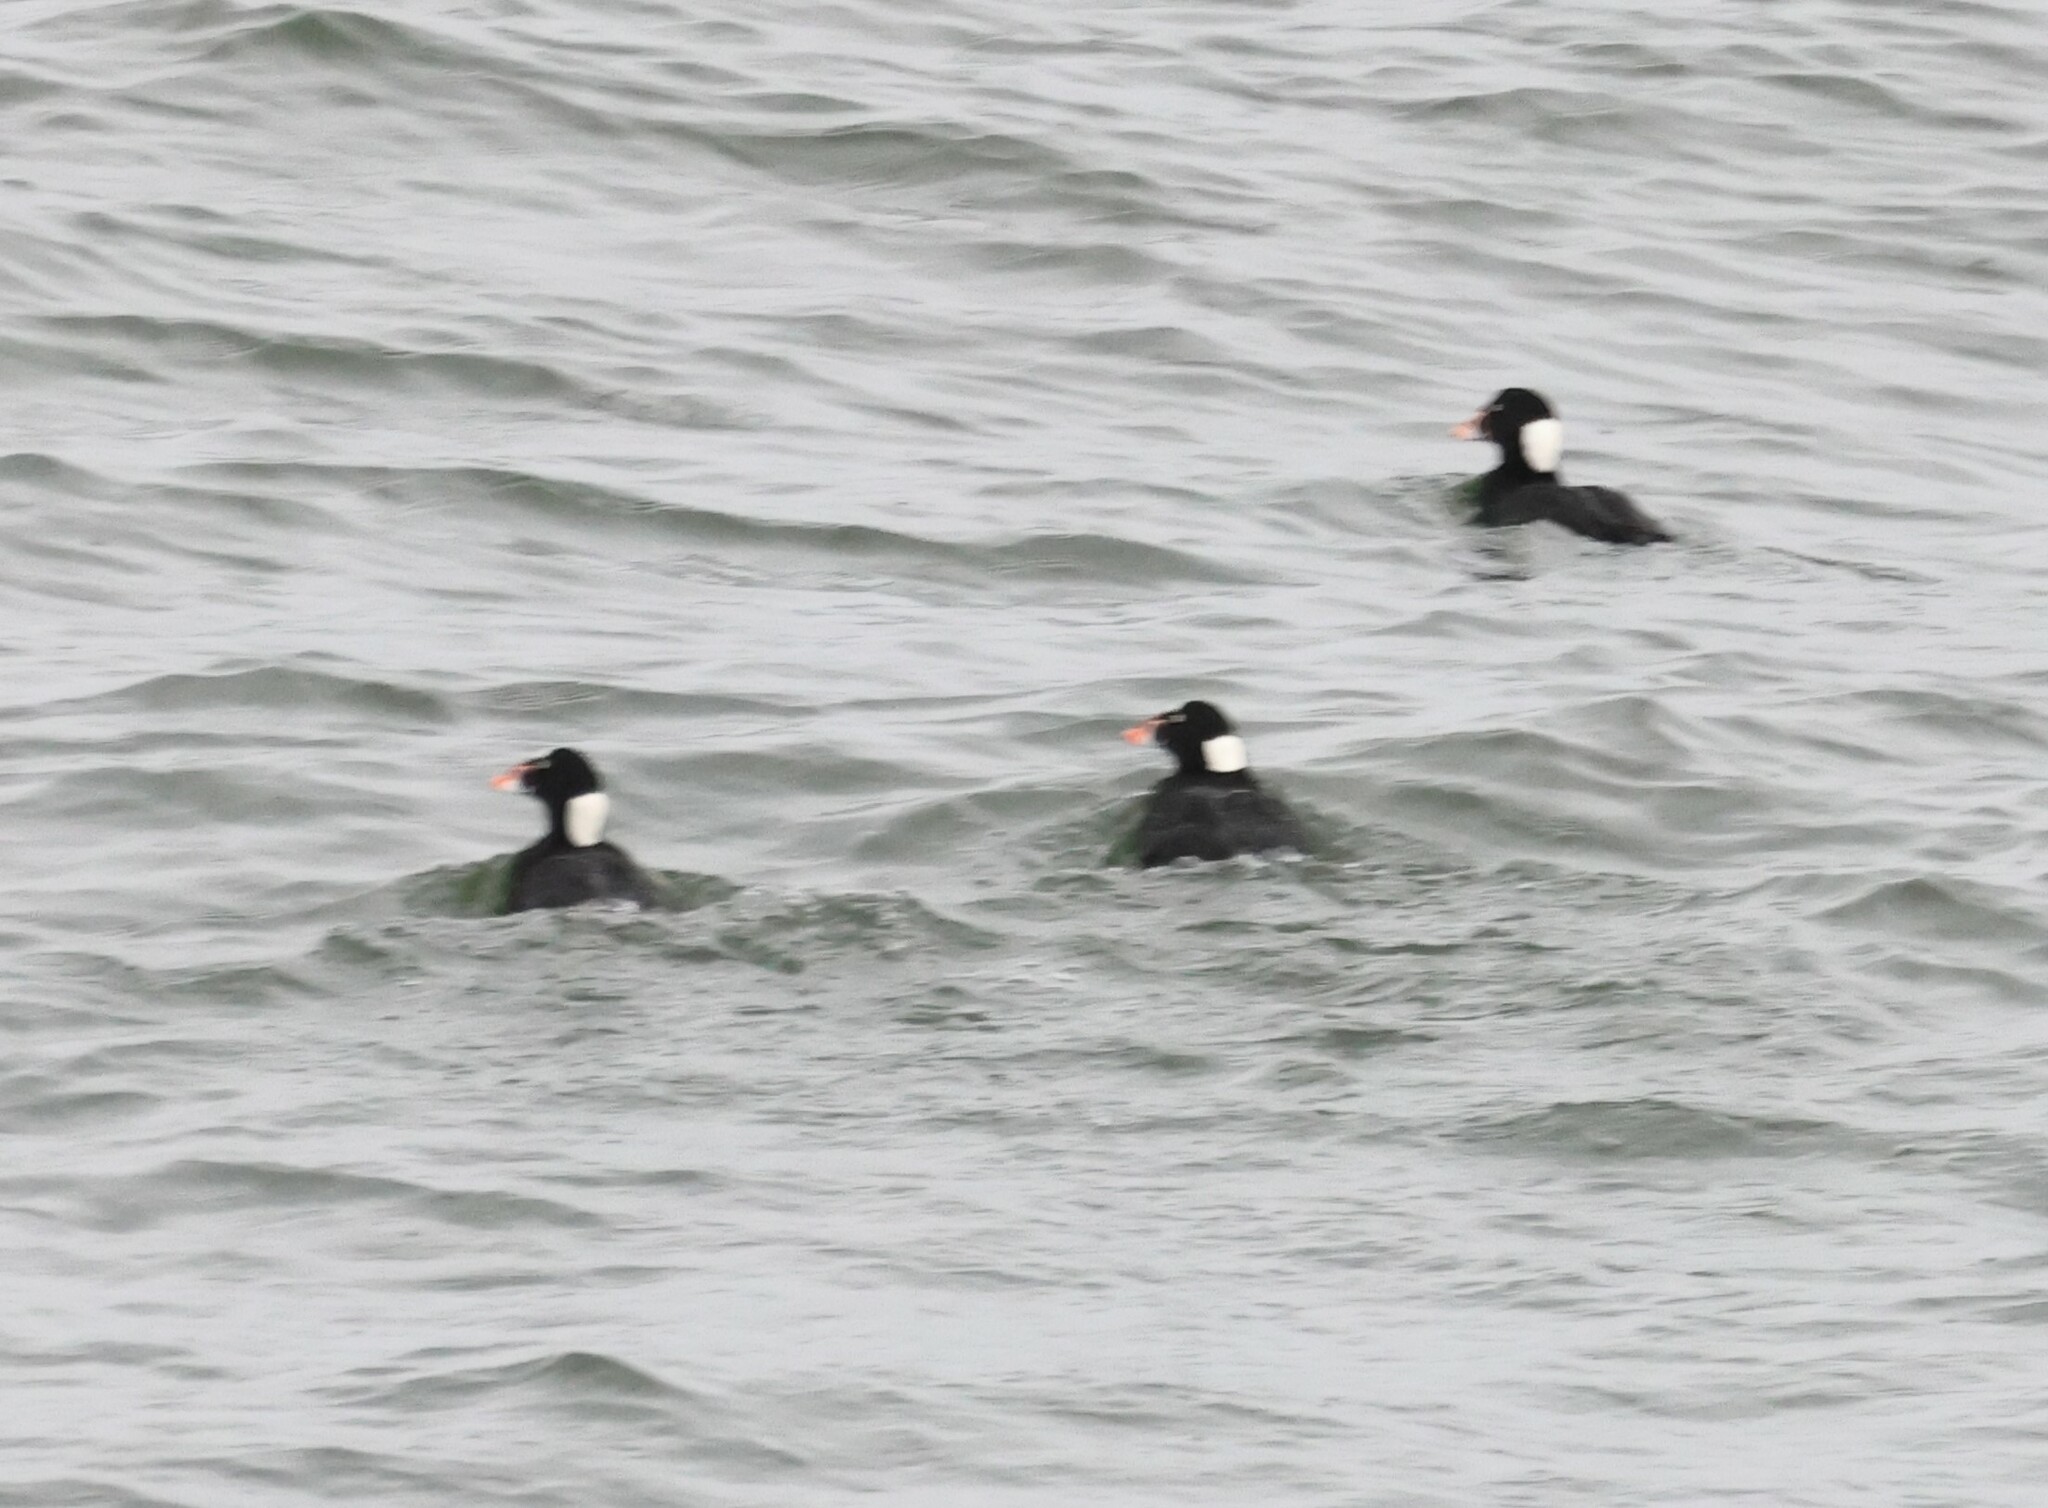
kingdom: Animalia
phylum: Chordata
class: Aves
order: Anseriformes
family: Anatidae
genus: Melanitta
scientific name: Melanitta perspicillata
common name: Surf scoter
